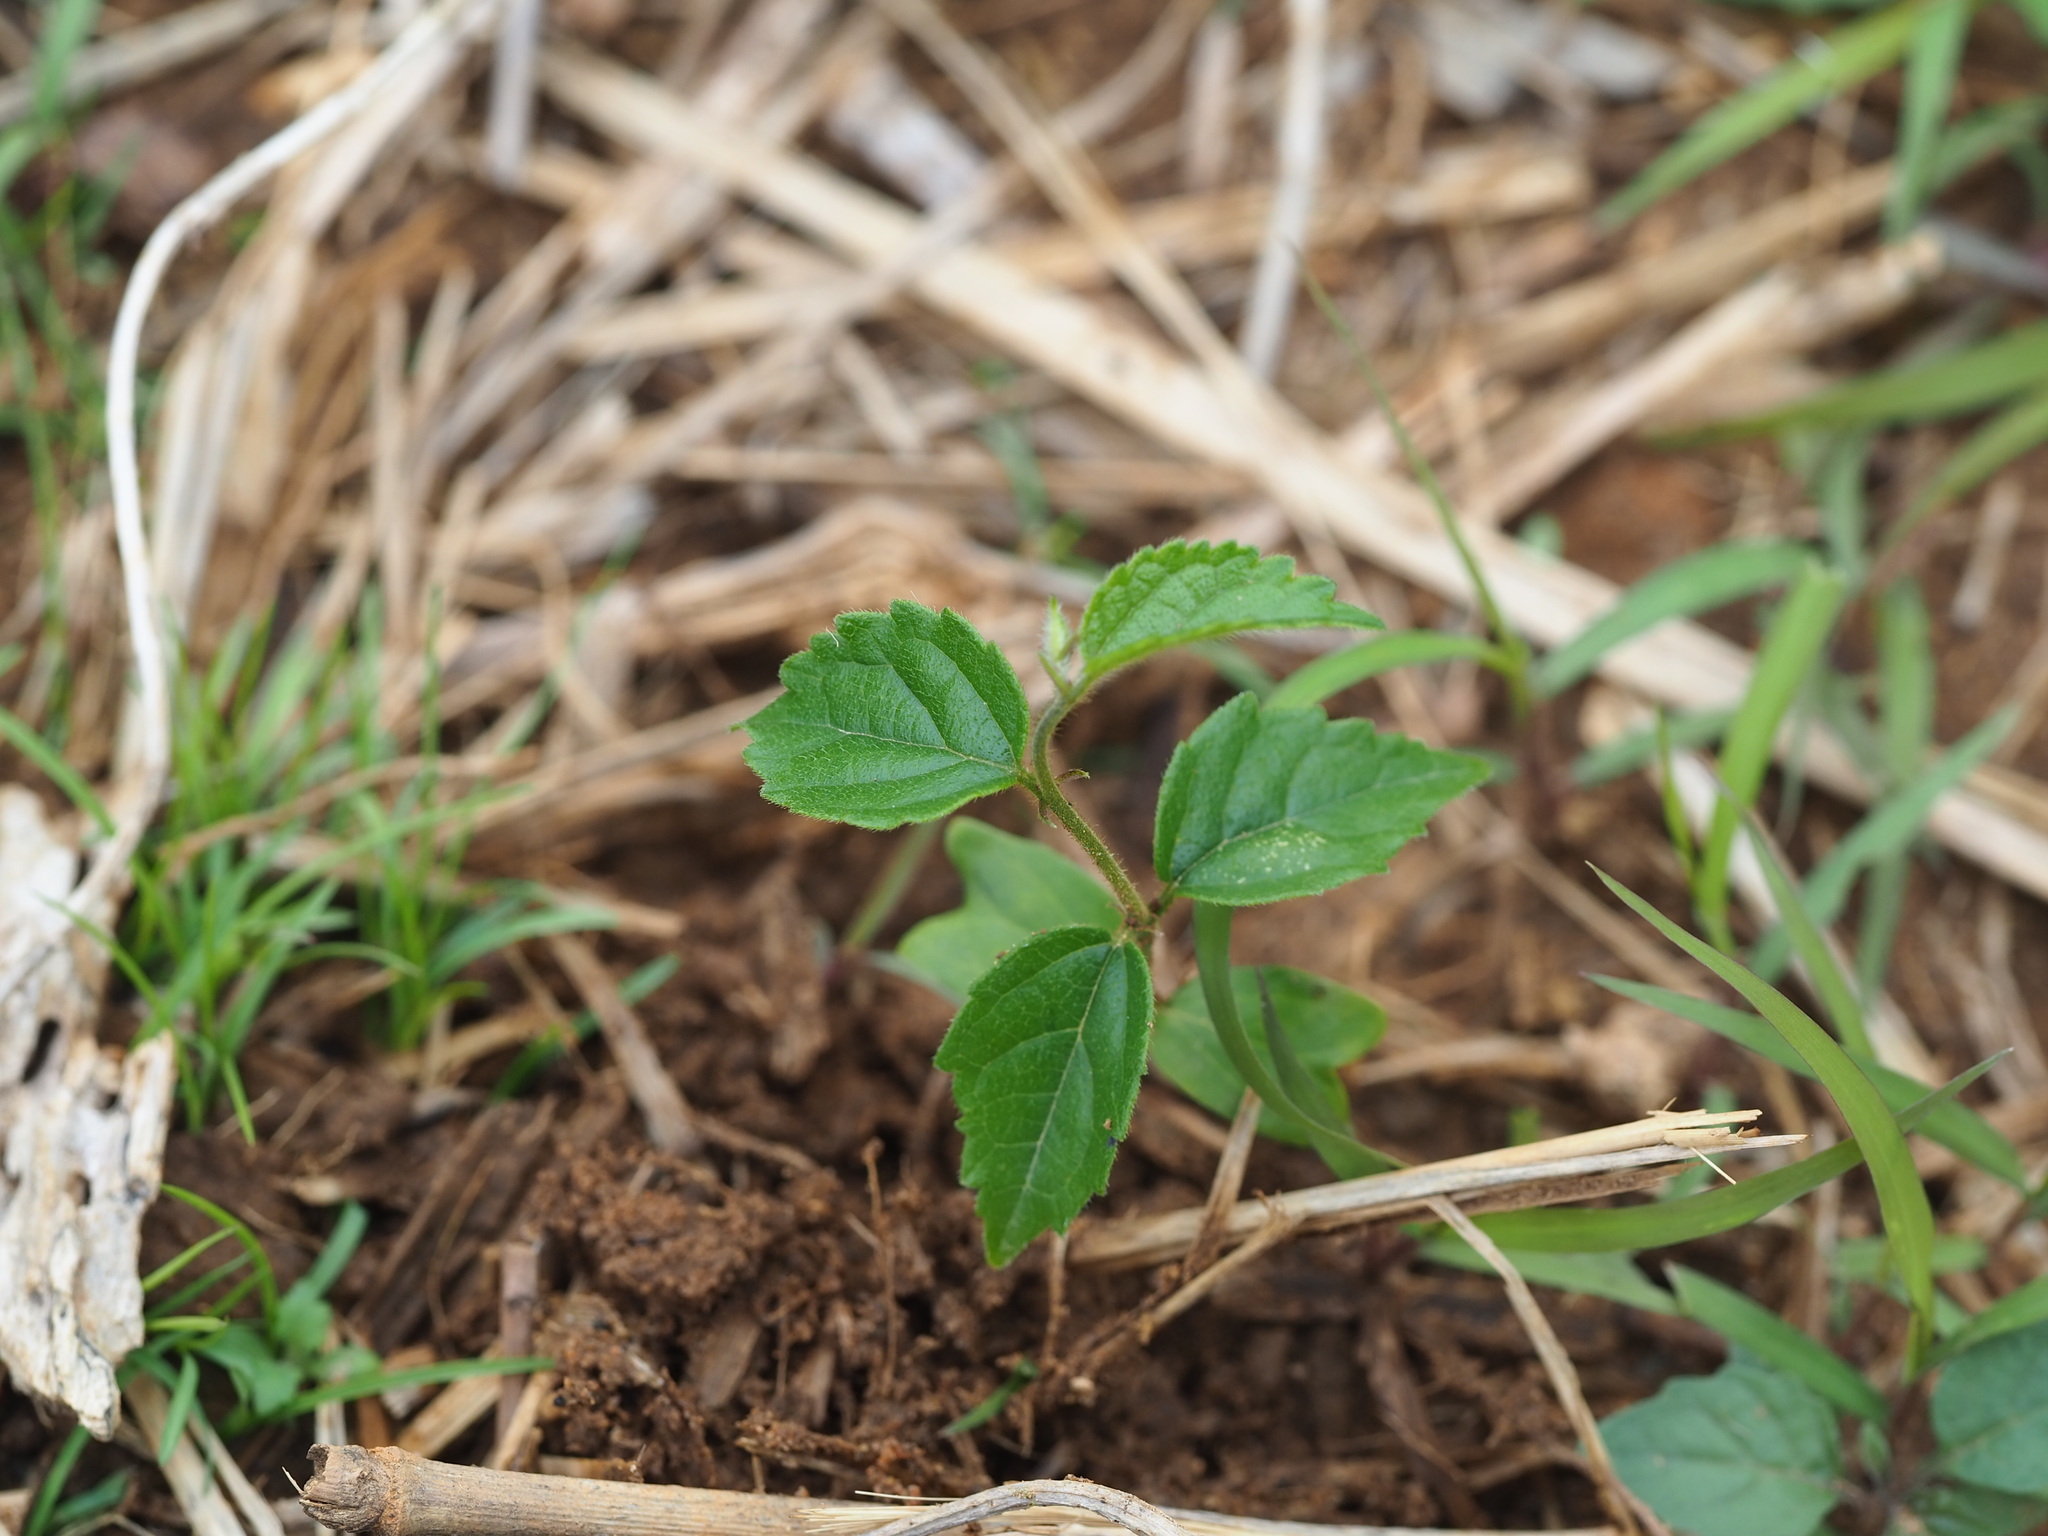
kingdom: Plantae
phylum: Tracheophyta
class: Magnoliopsida
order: Rosales
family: Cannabaceae
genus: Celtis
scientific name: Celtis sinensis
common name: Chinese hackberry
